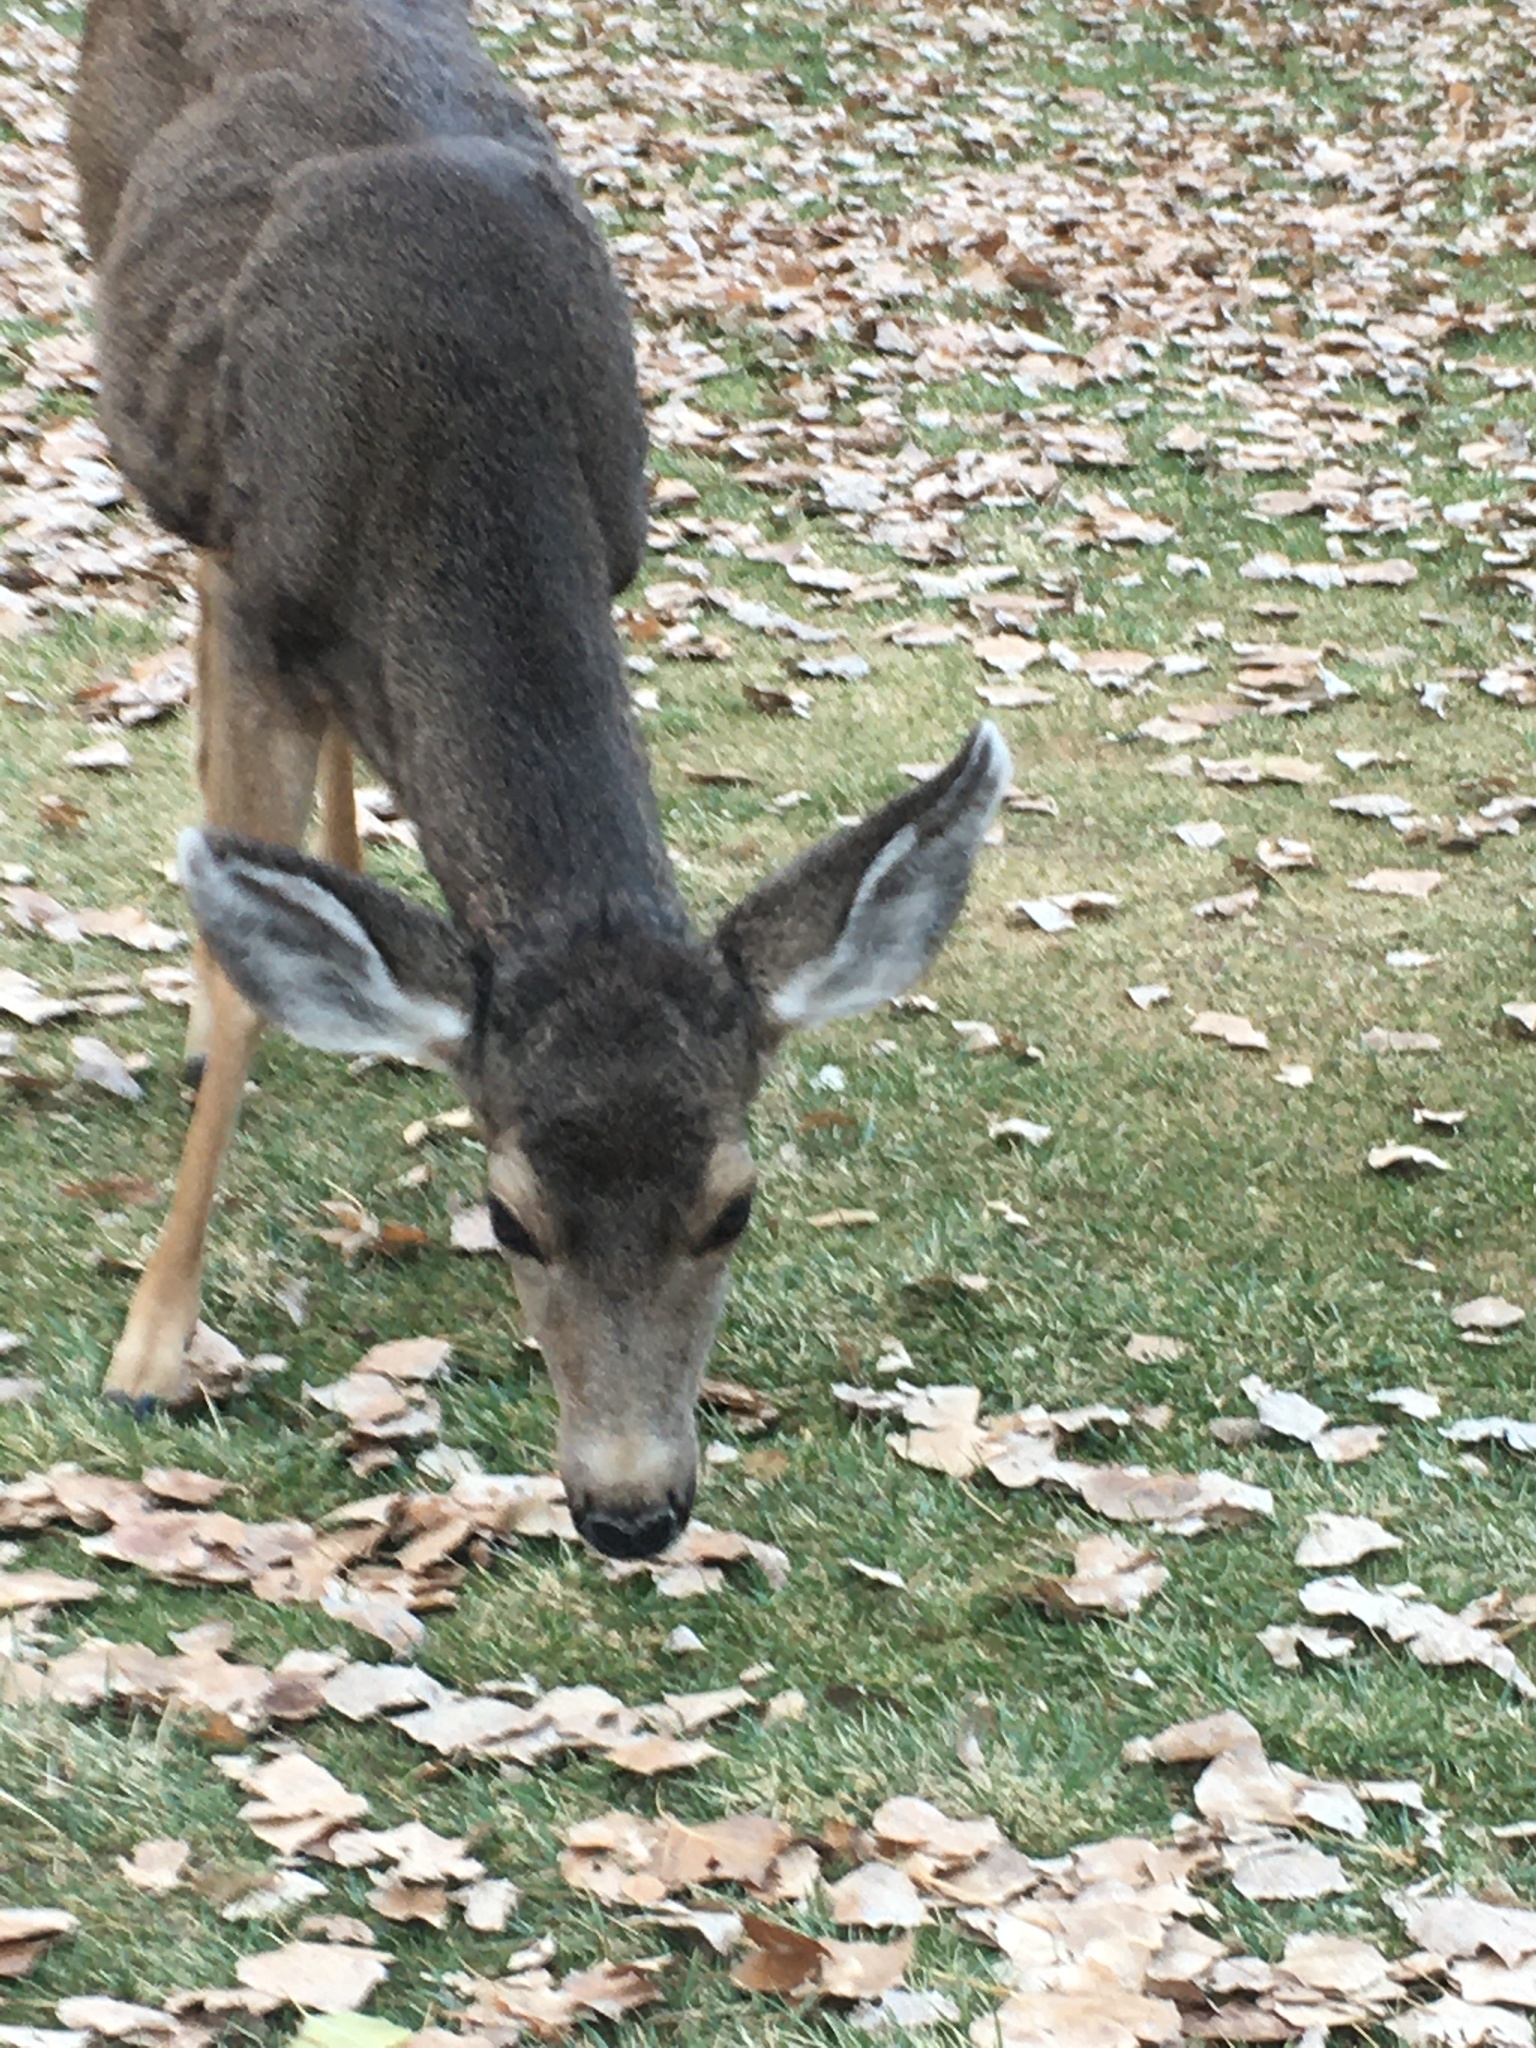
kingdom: Animalia
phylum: Chordata
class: Mammalia
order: Artiodactyla
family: Cervidae
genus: Odocoileus
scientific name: Odocoileus hemionus
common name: Mule deer
